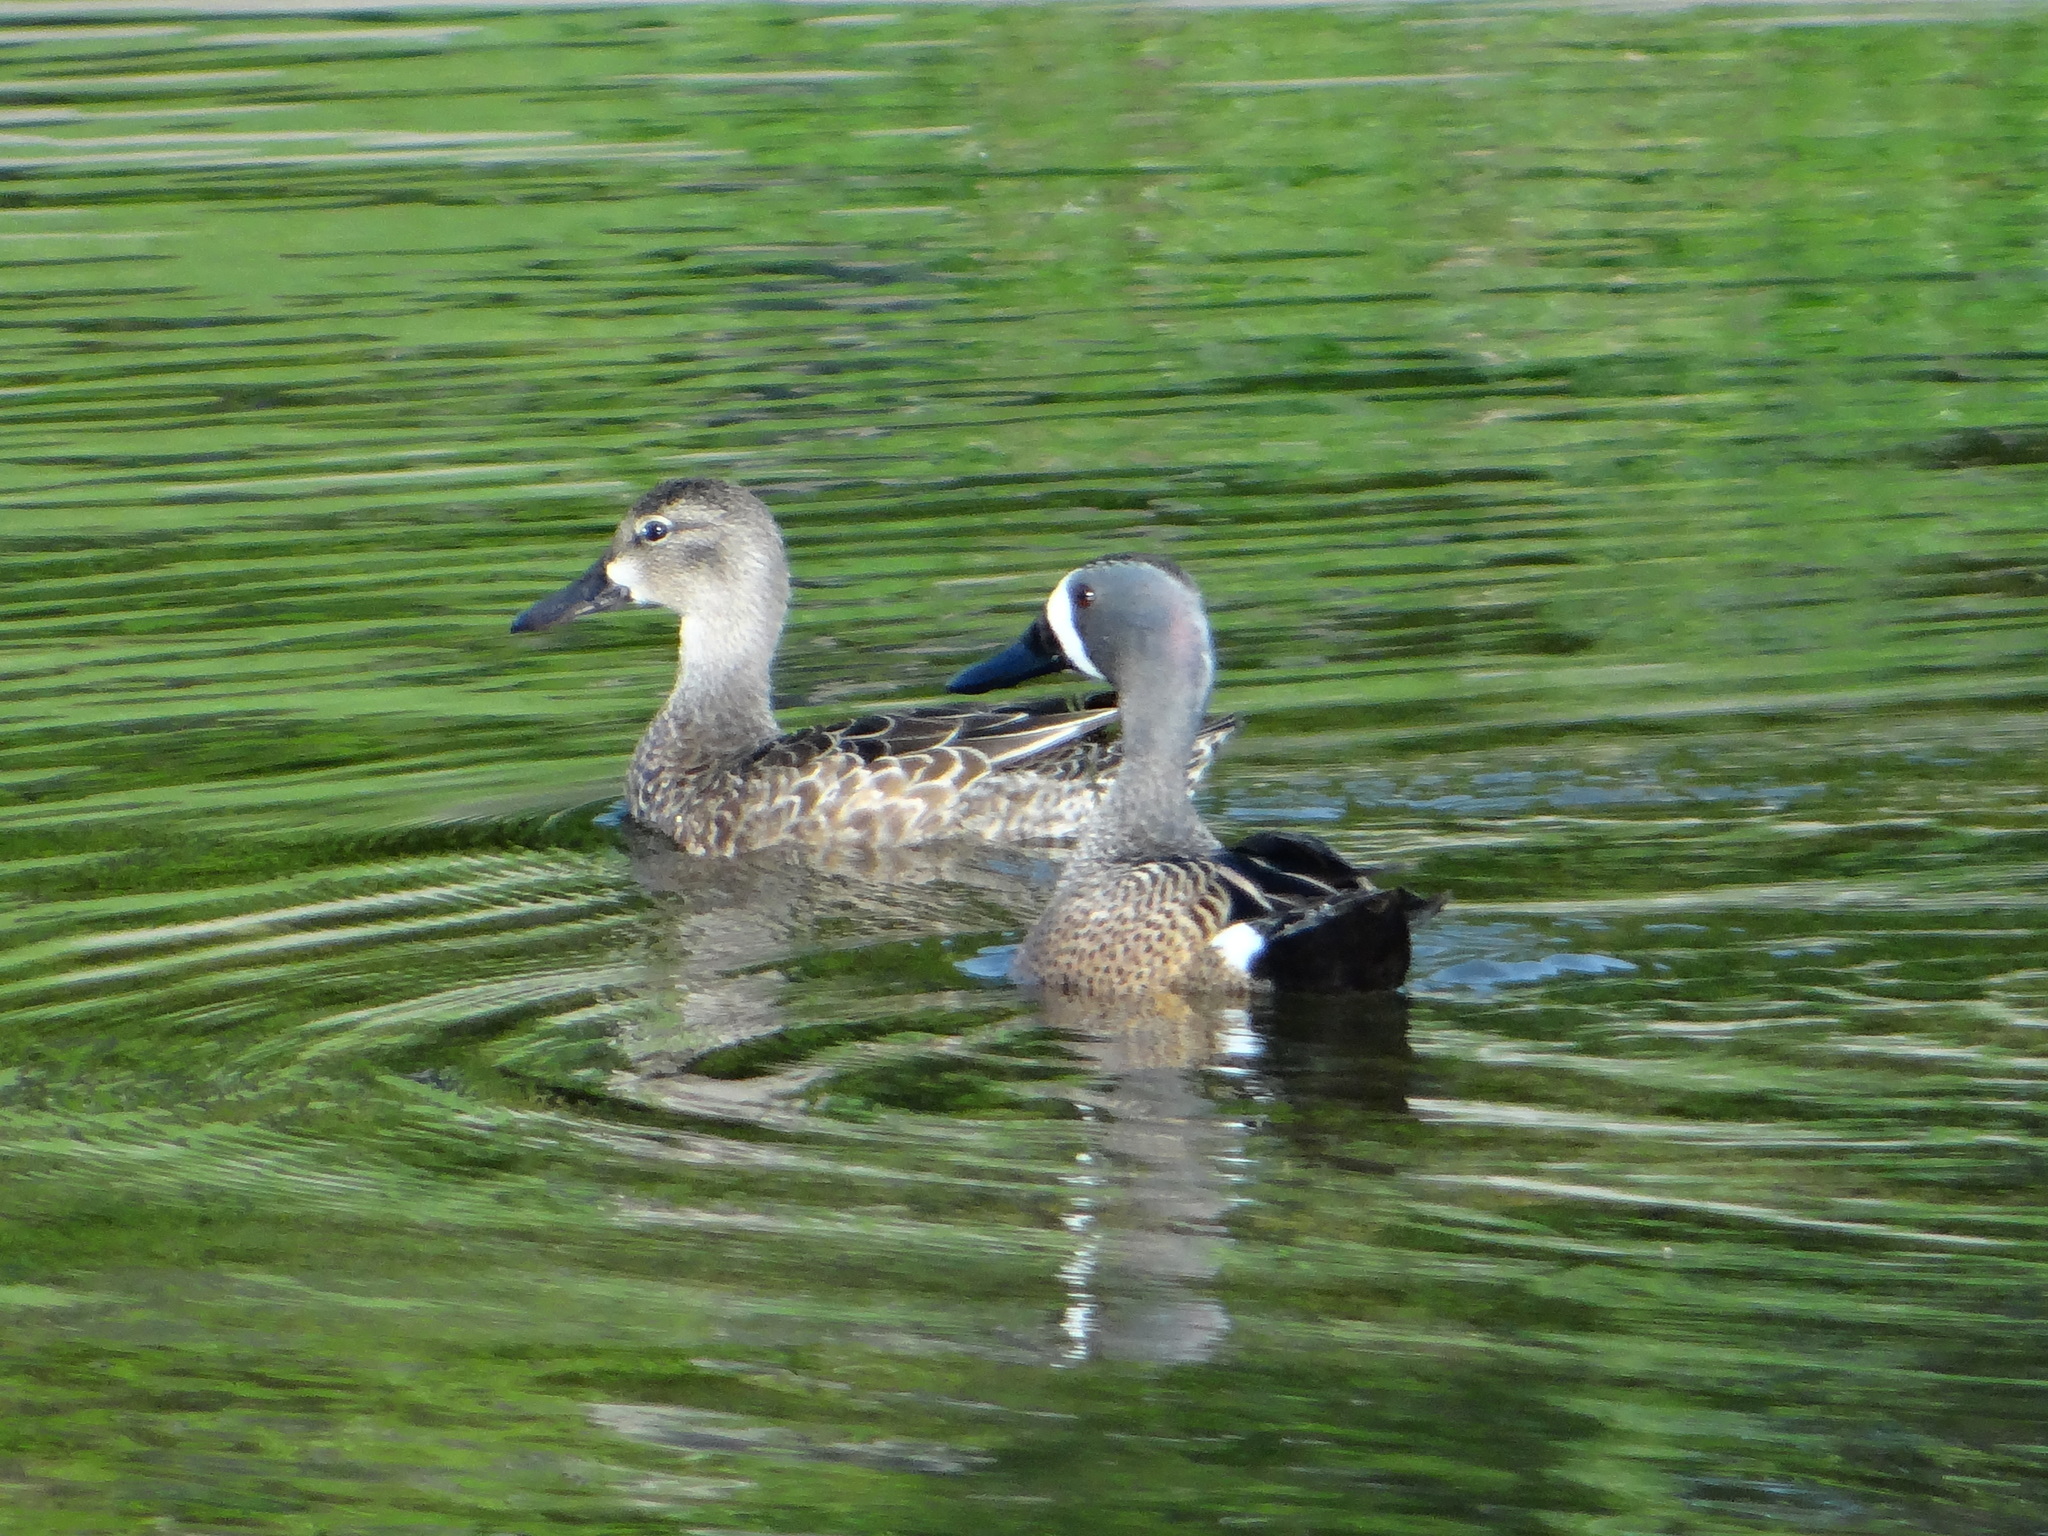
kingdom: Animalia
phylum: Chordata
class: Aves
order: Anseriformes
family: Anatidae
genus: Spatula
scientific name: Spatula discors
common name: Blue-winged teal
